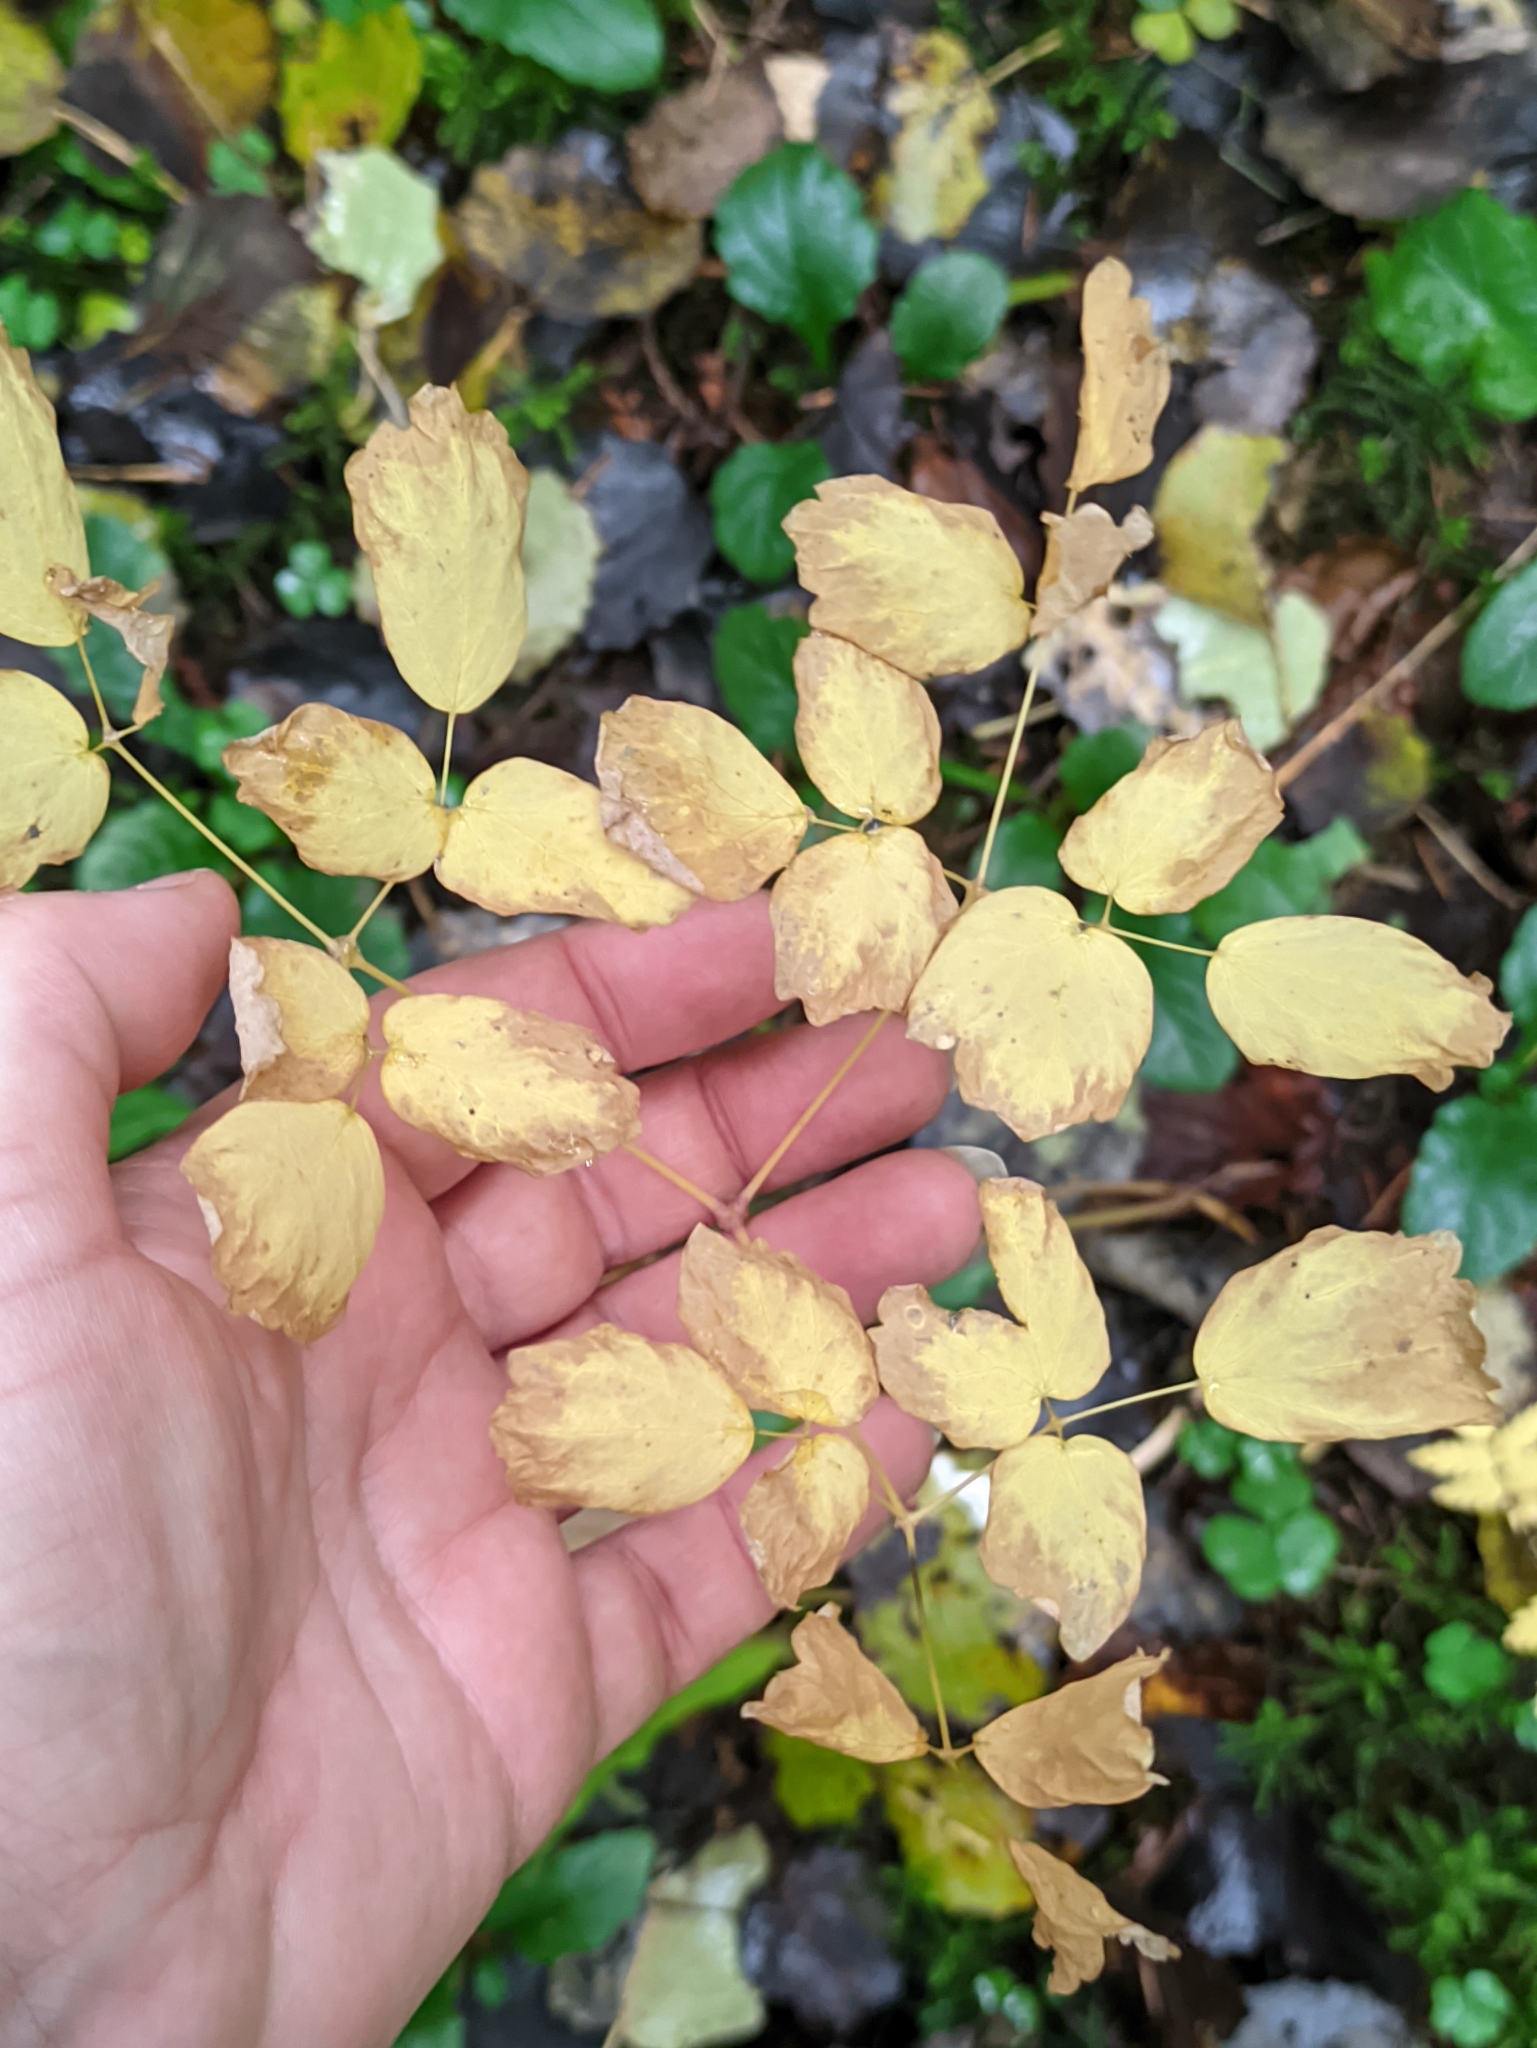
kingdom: Plantae
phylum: Tracheophyta
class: Magnoliopsida
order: Ranunculales
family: Ranunculaceae
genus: Thalictrum
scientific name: Thalictrum aquilegiifolium
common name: French meadow-rue
